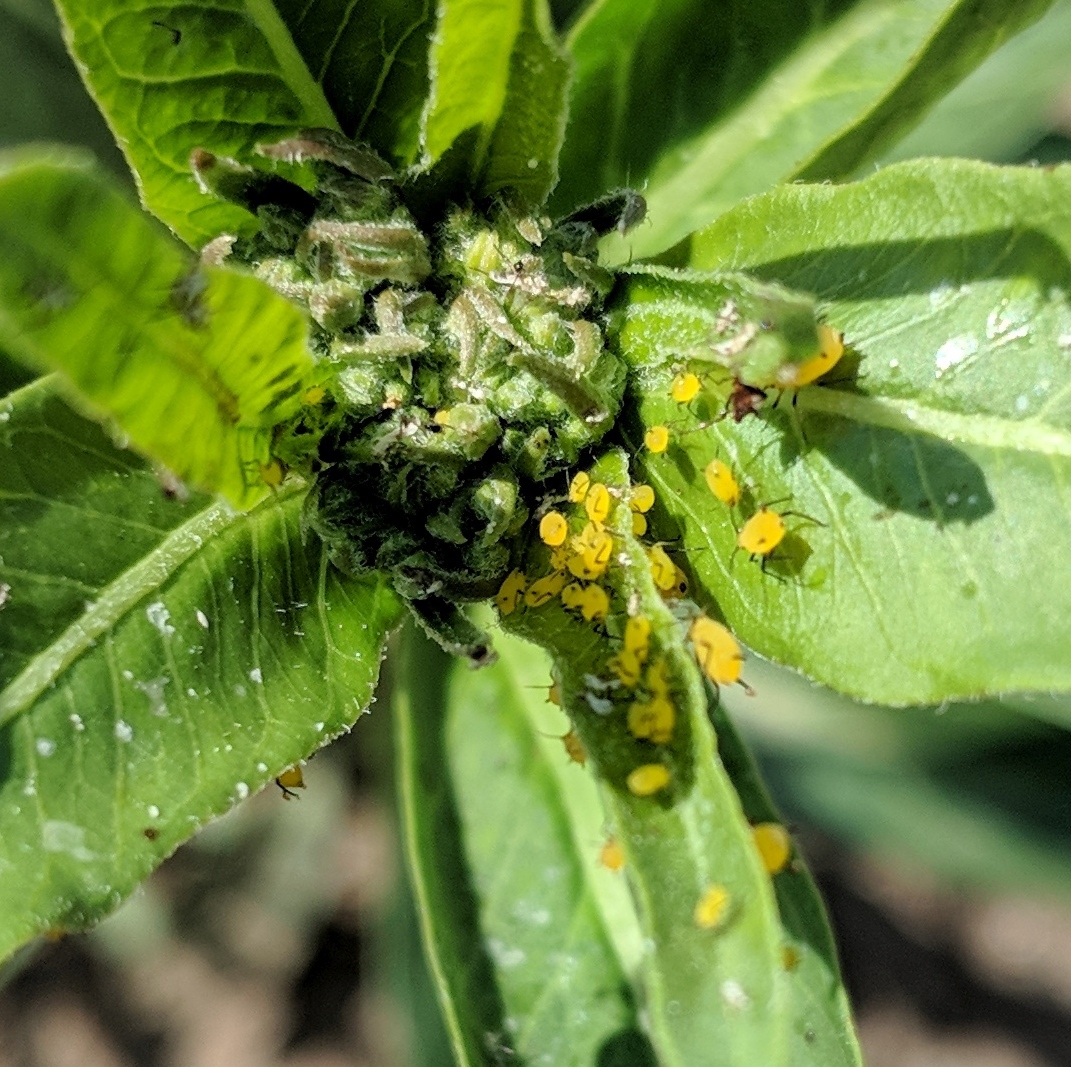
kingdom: Animalia
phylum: Arthropoda
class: Insecta
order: Hemiptera
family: Aphididae
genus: Aphis
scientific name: Aphis nerii
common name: Oleander aphid
